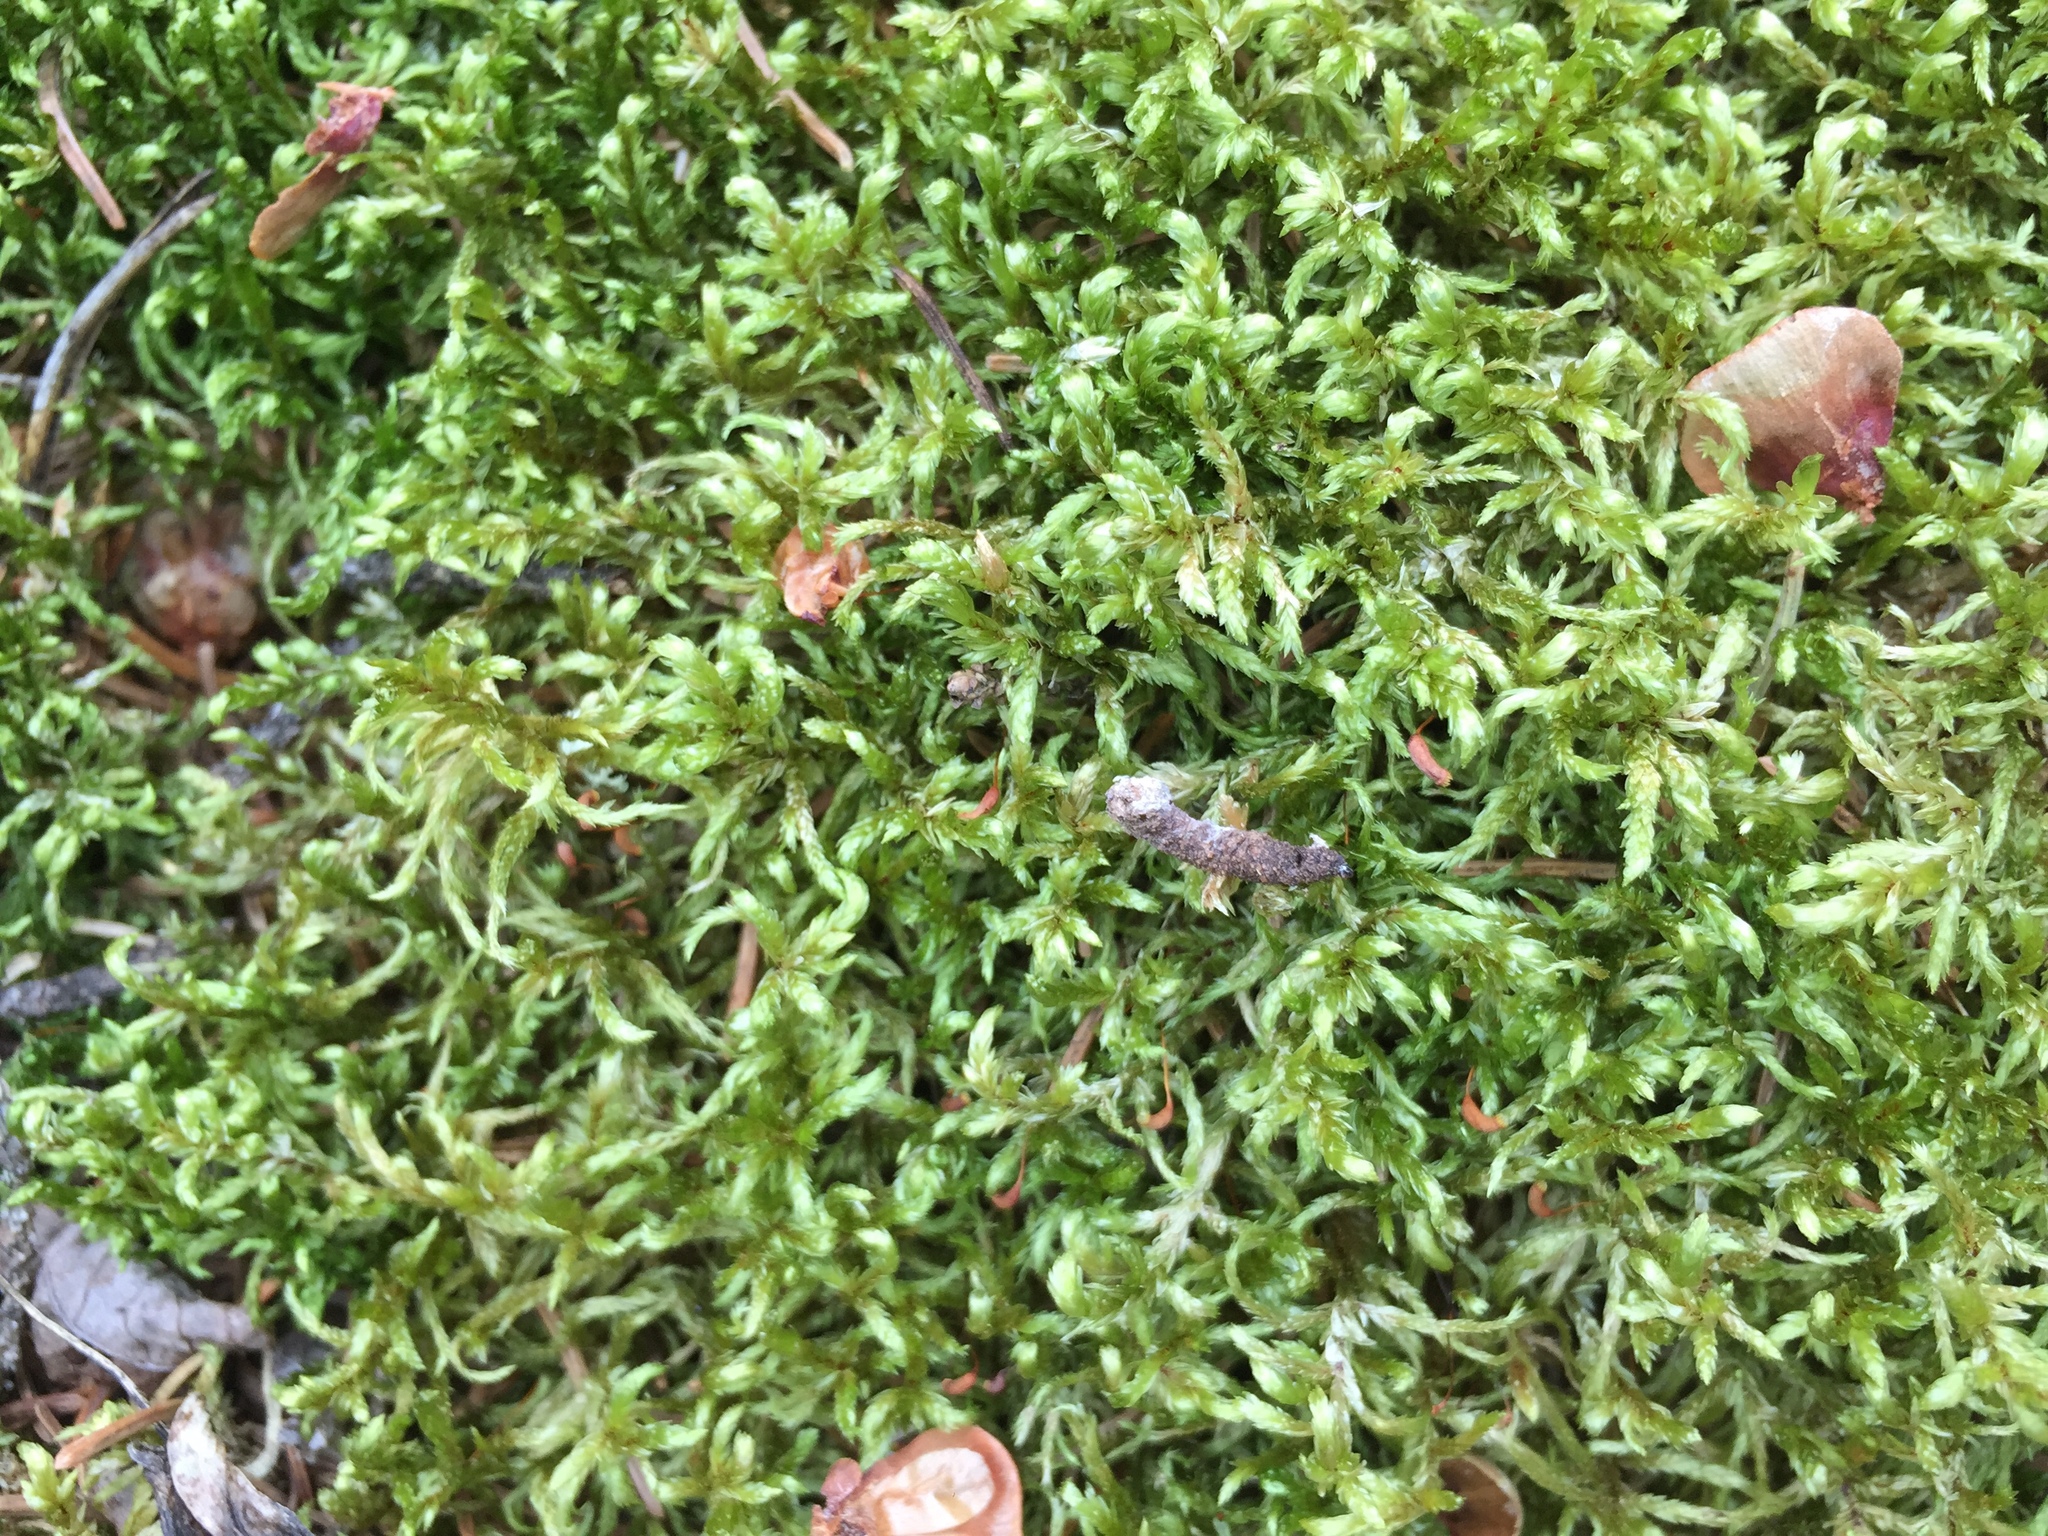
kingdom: Plantae
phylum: Bryophyta
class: Bryopsida
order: Hypnales
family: Hylocomiaceae
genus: Pleurozium
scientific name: Pleurozium schreberi
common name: Red-stemmed feather moss
